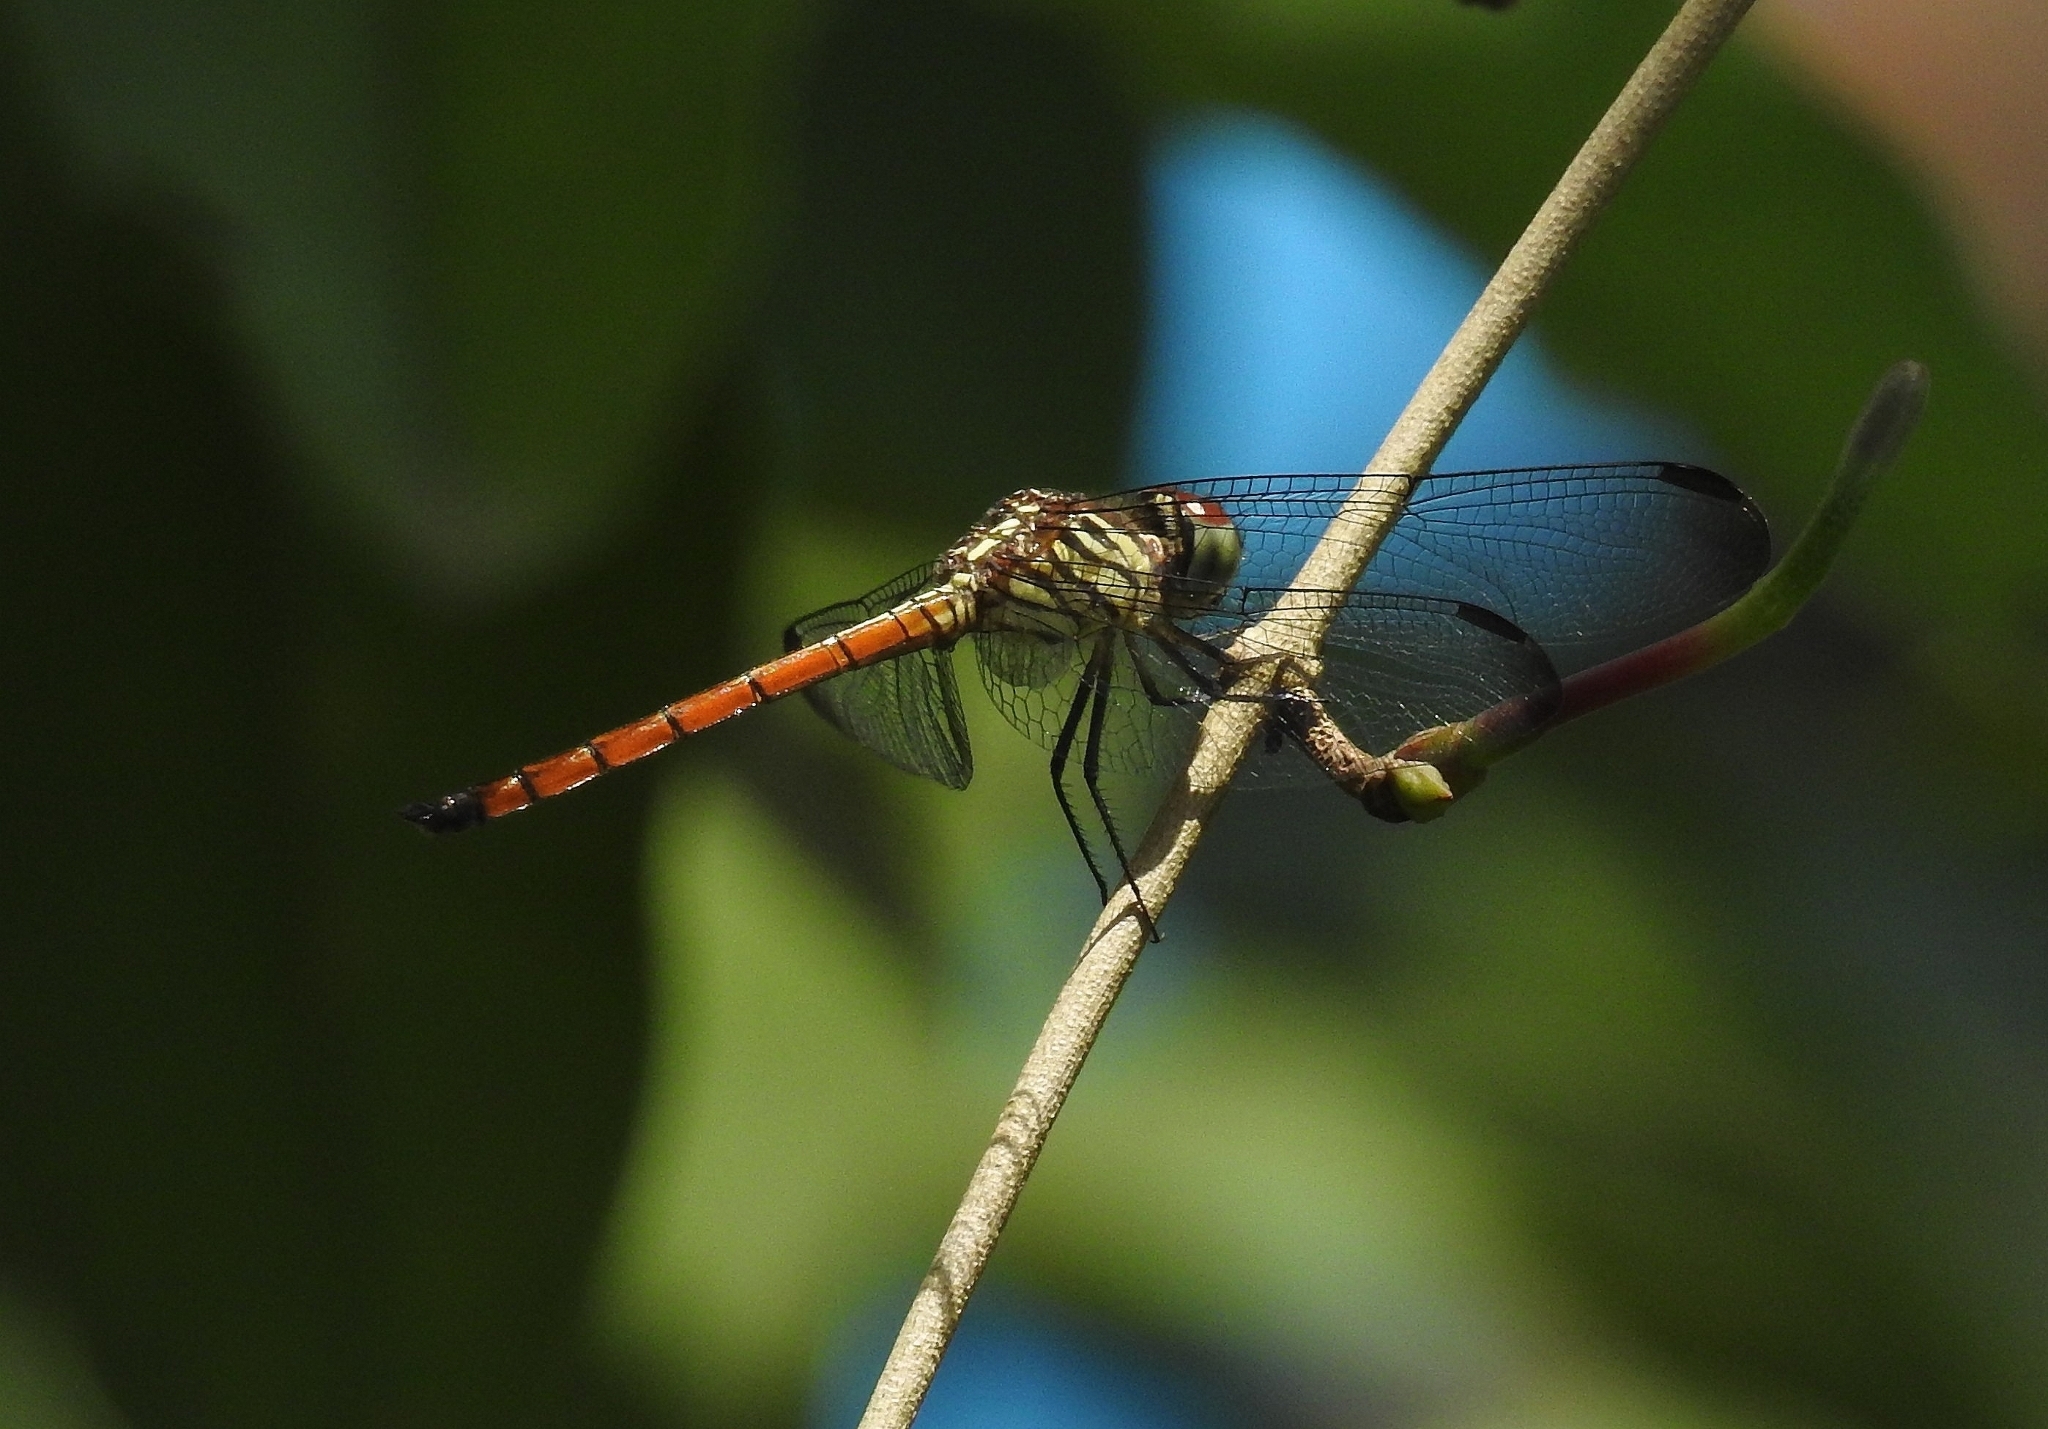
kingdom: Animalia
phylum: Arthropoda
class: Insecta
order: Odonata
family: Libellulidae
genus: Lathrecista
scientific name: Lathrecista asiatica
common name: Scarlet grenadier
